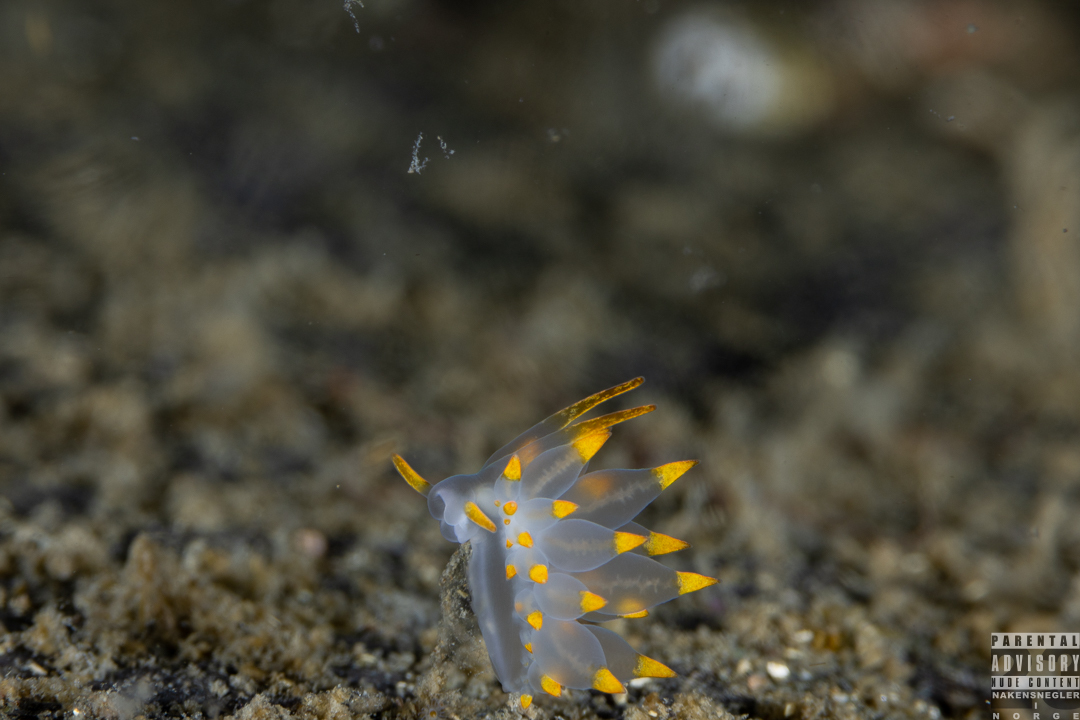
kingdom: Animalia
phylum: Mollusca
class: Gastropoda
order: Nudibranchia
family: Eubranchidae
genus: Amphorina
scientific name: Amphorina farrani
